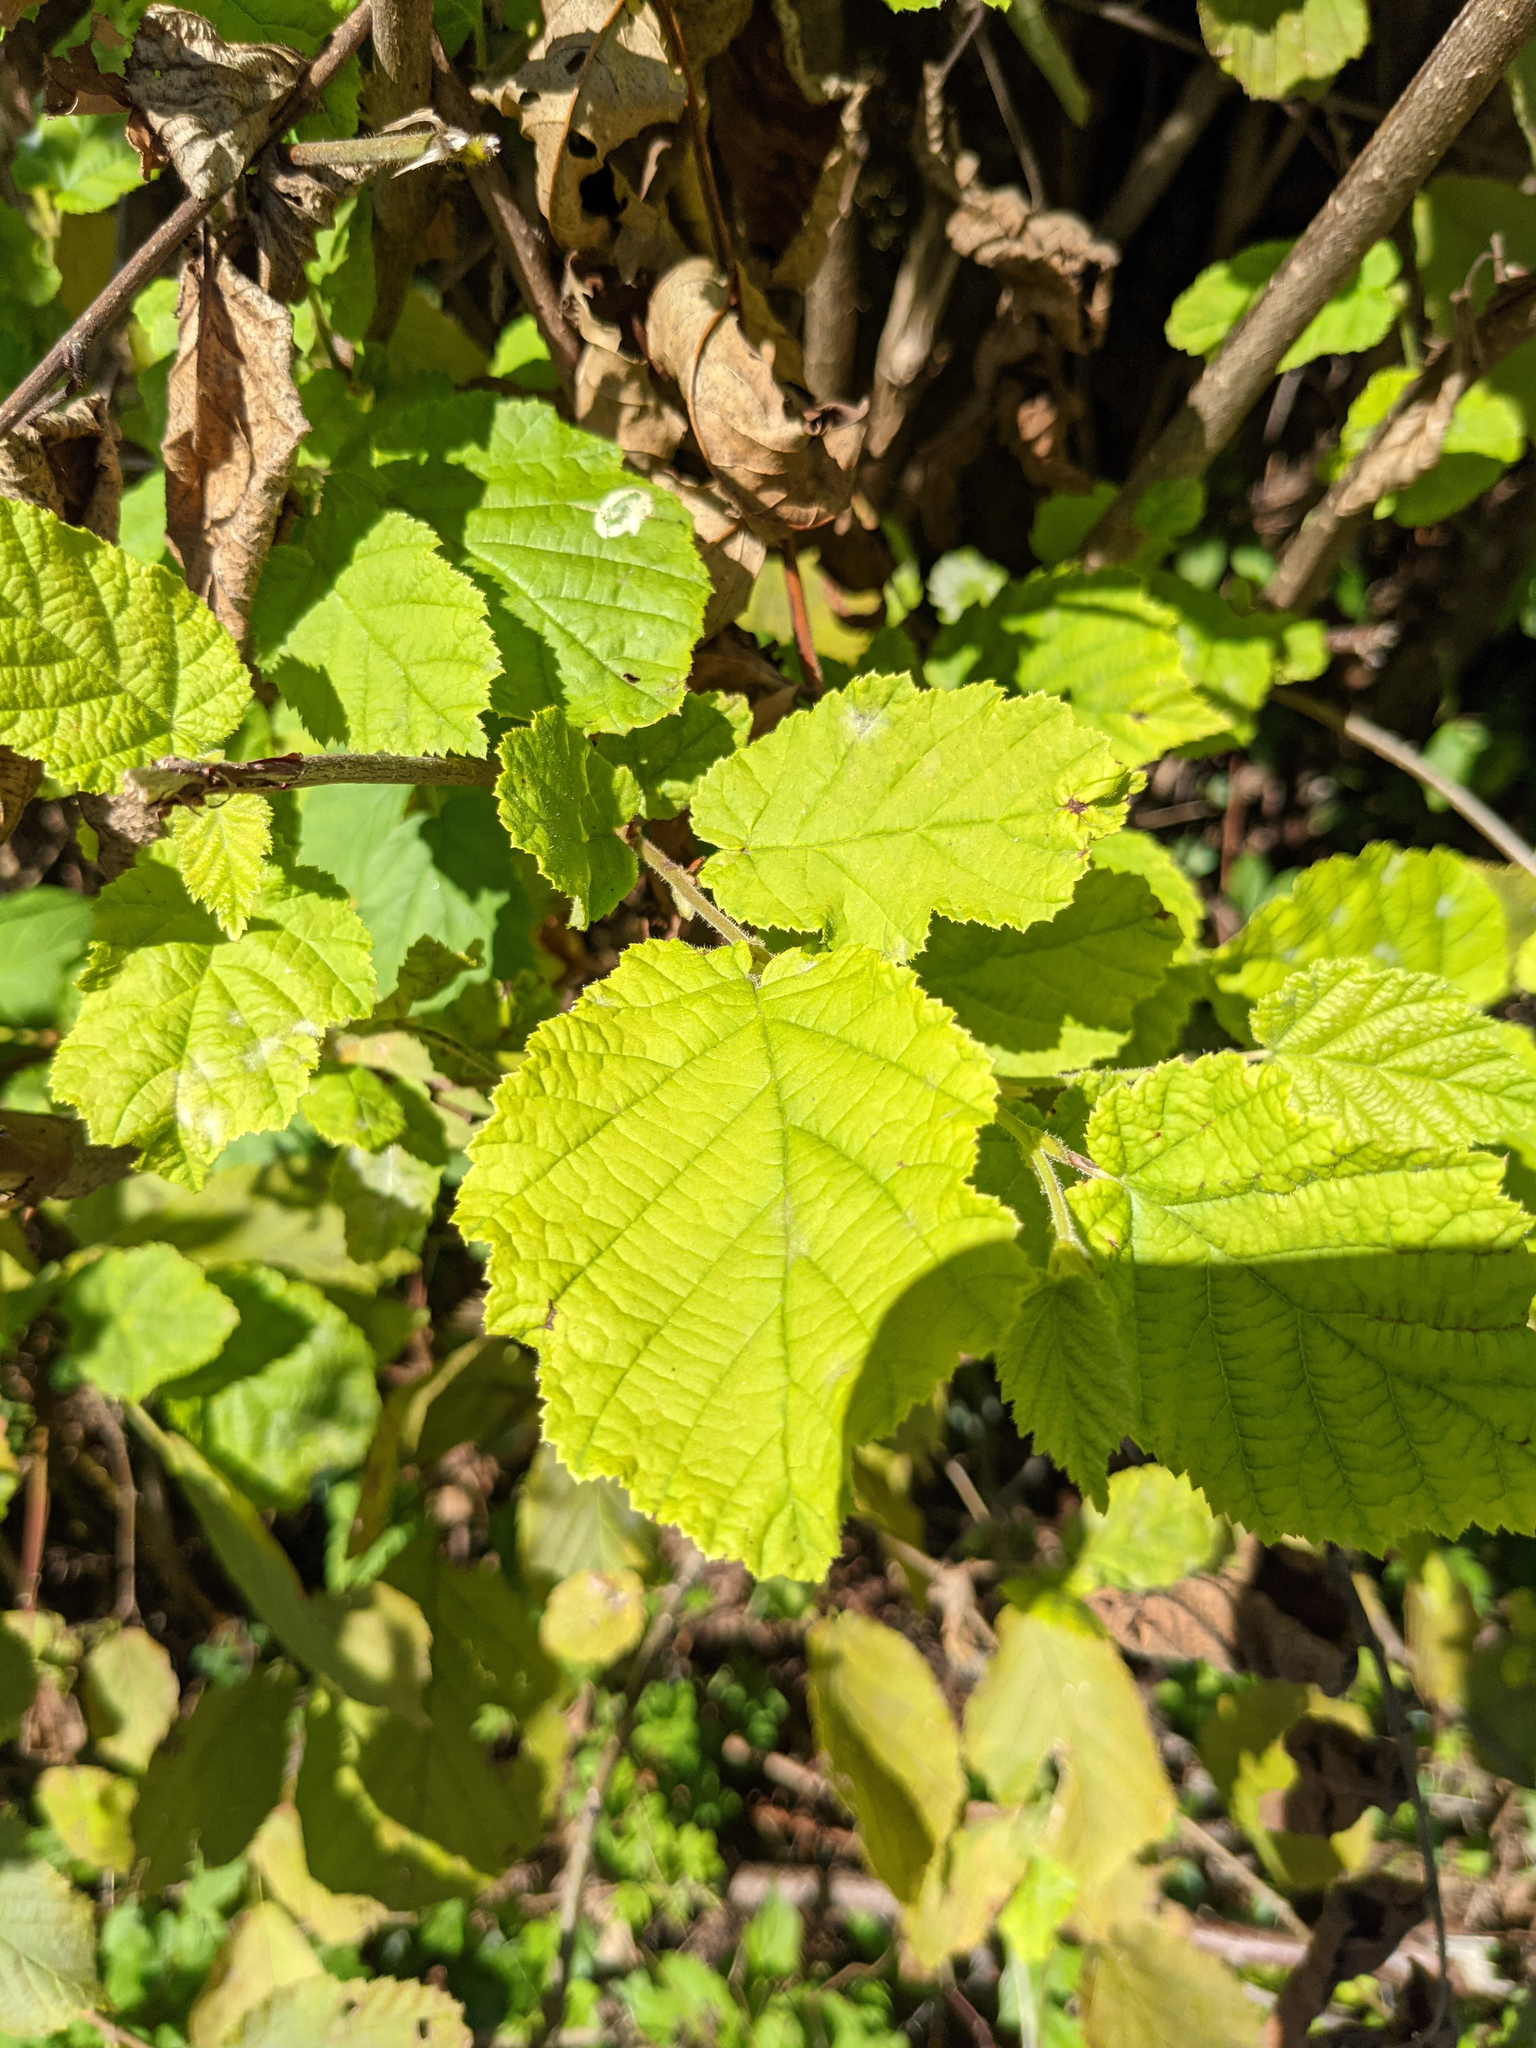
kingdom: Plantae
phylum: Tracheophyta
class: Magnoliopsida
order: Fagales
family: Betulaceae
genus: Corylus
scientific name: Corylus avellana
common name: European hazel
